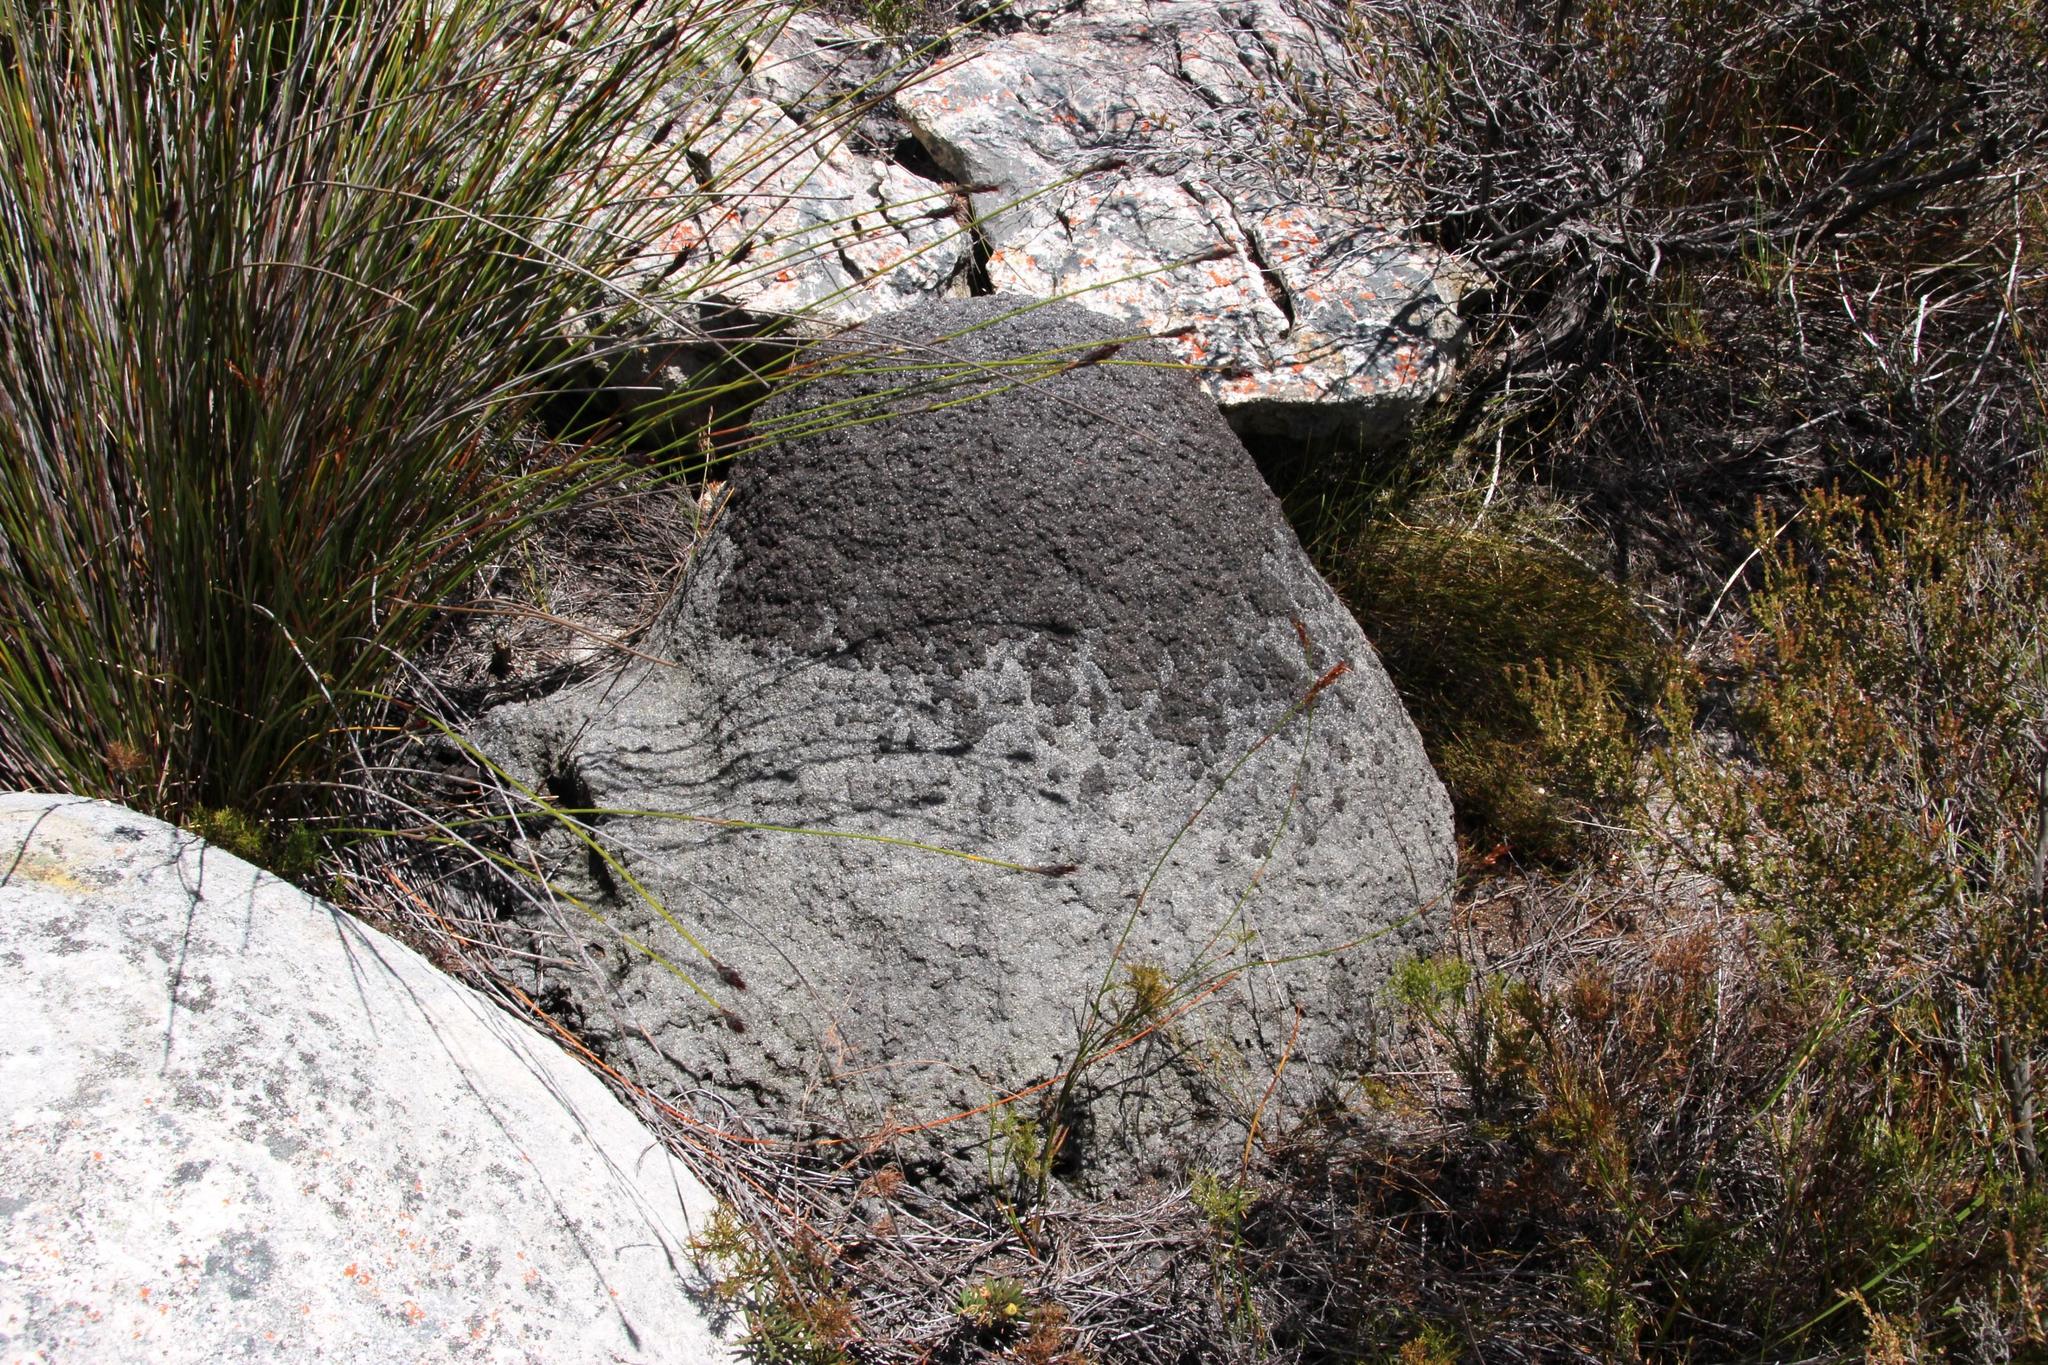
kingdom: Animalia
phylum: Arthropoda
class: Insecta
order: Blattodea
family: Termitidae
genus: Amitermes
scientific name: Amitermes hastatus
